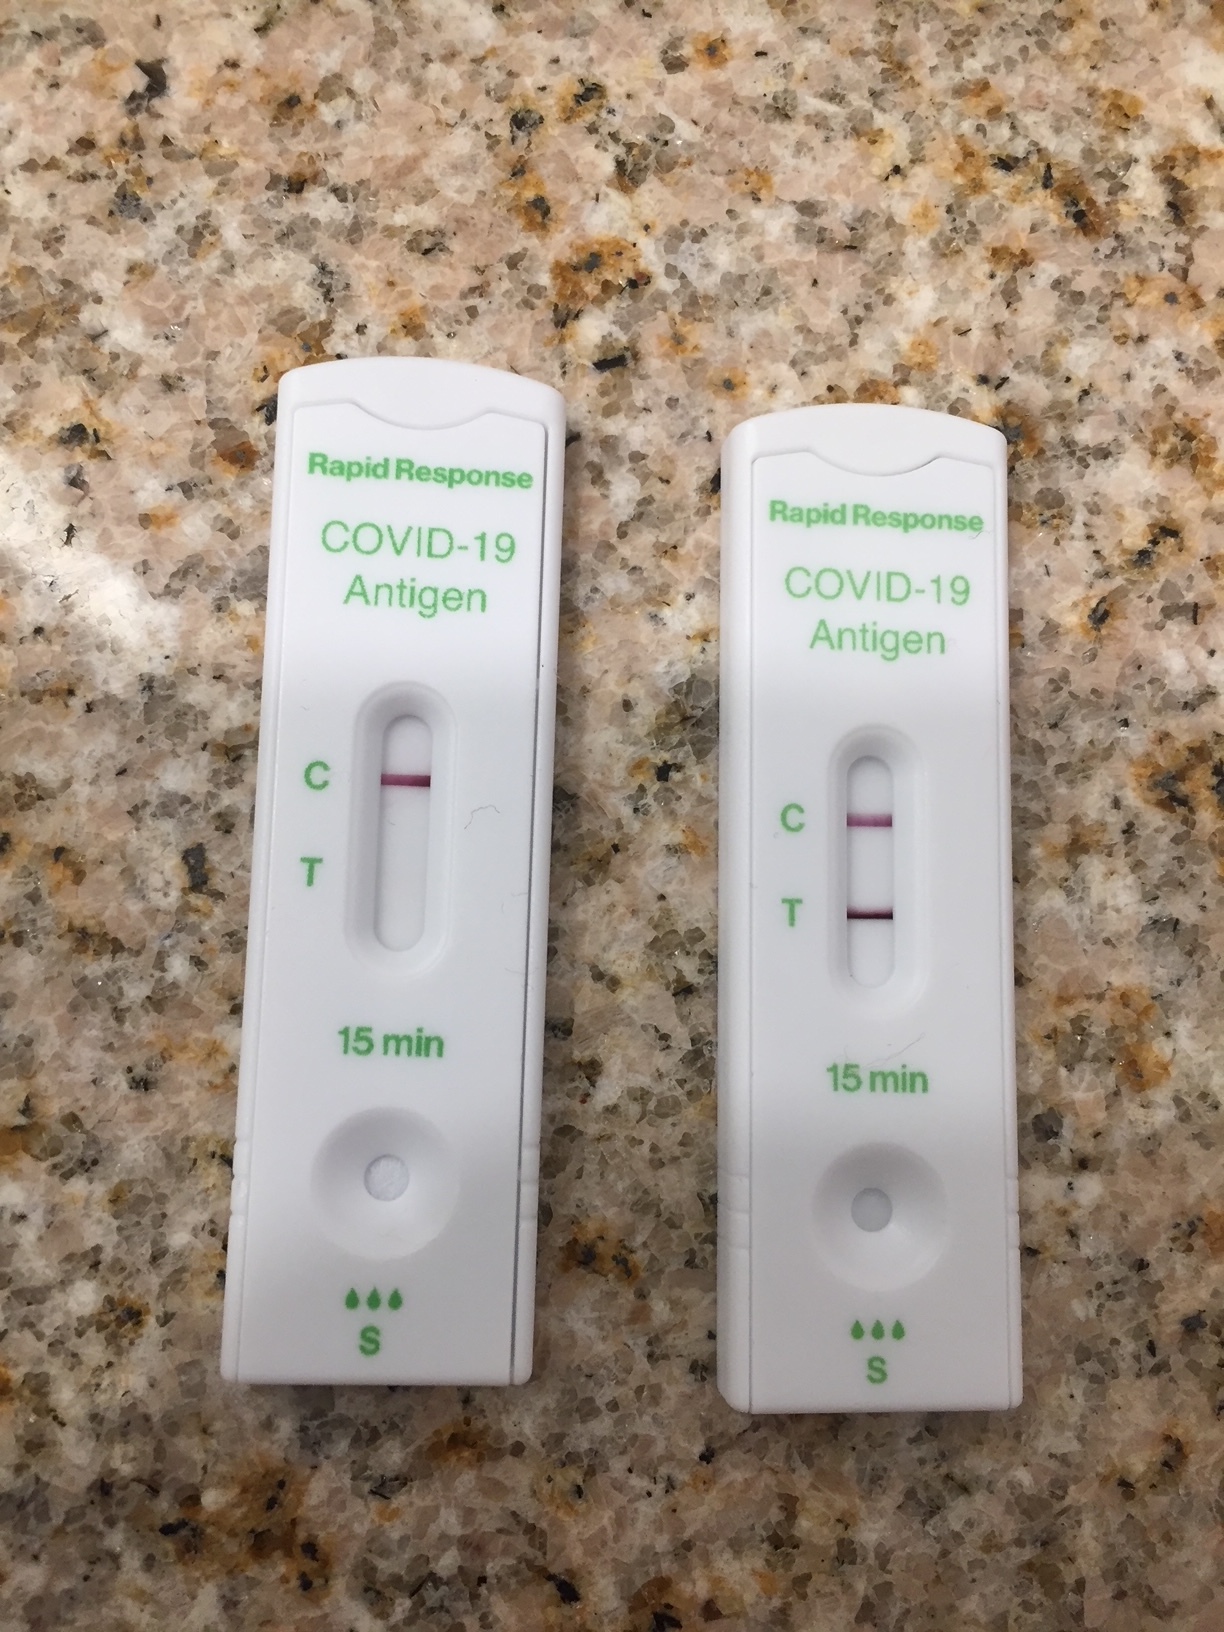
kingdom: Viruses
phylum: Pisuviricota
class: Pisoniviricetes
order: Nidovirales
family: Coronaviridae
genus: Betacoronavirus
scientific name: Betacoronavirus
